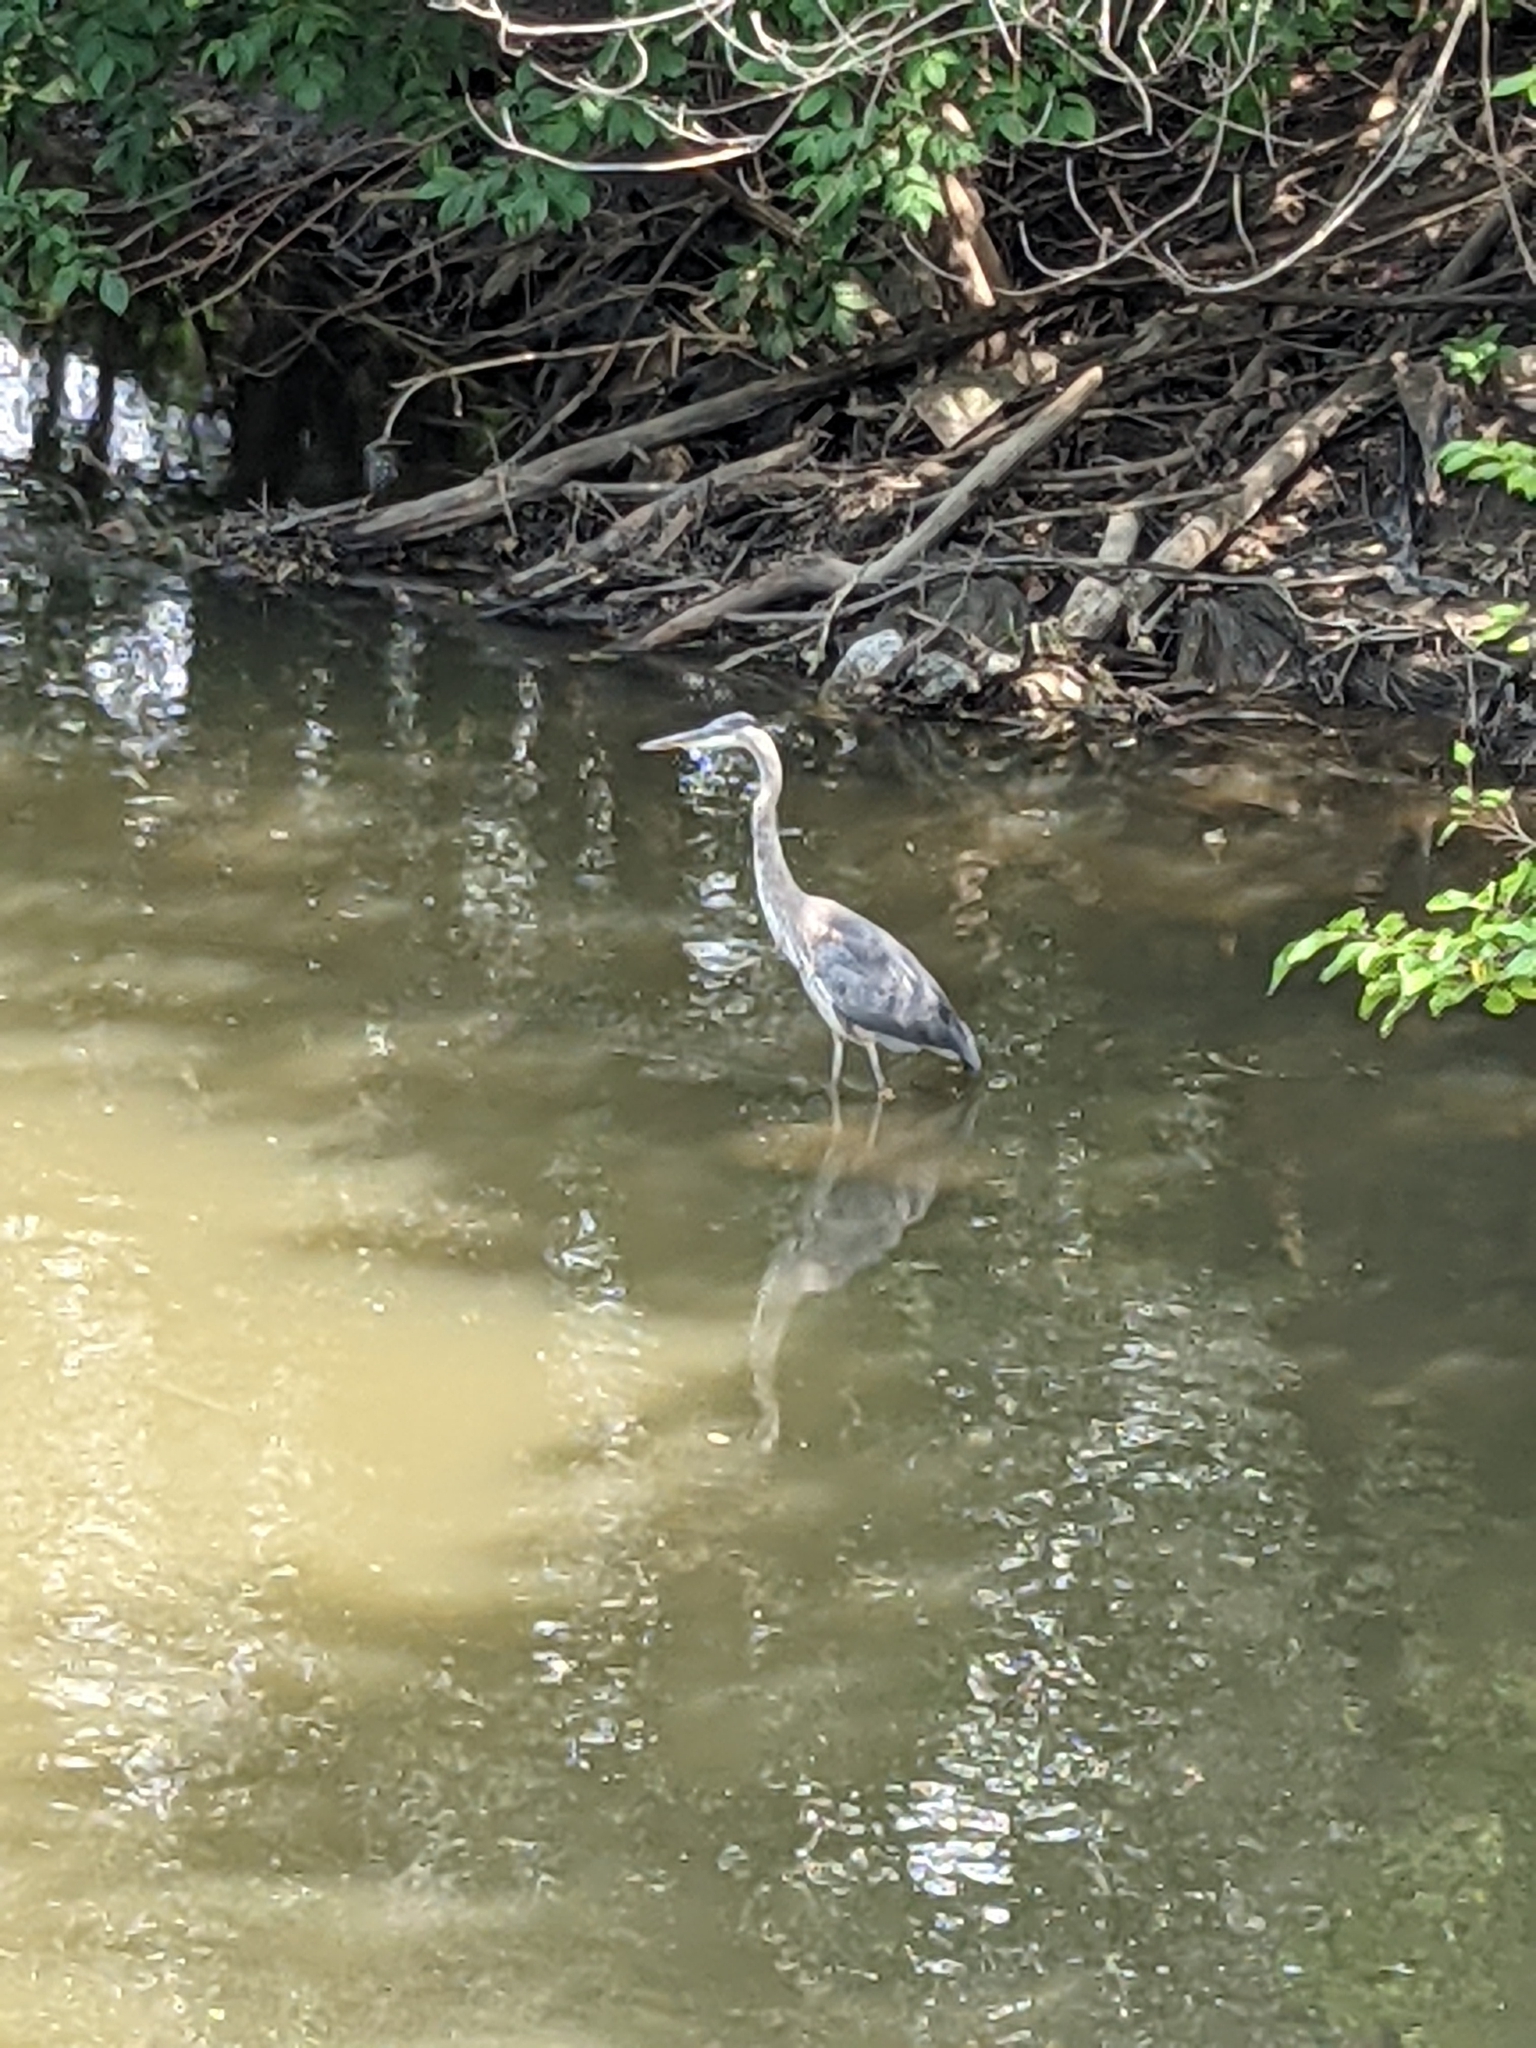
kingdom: Animalia
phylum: Chordata
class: Aves
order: Pelecaniformes
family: Ardeidae
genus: Ardea
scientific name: Ardea herodias
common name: Great blue heron
